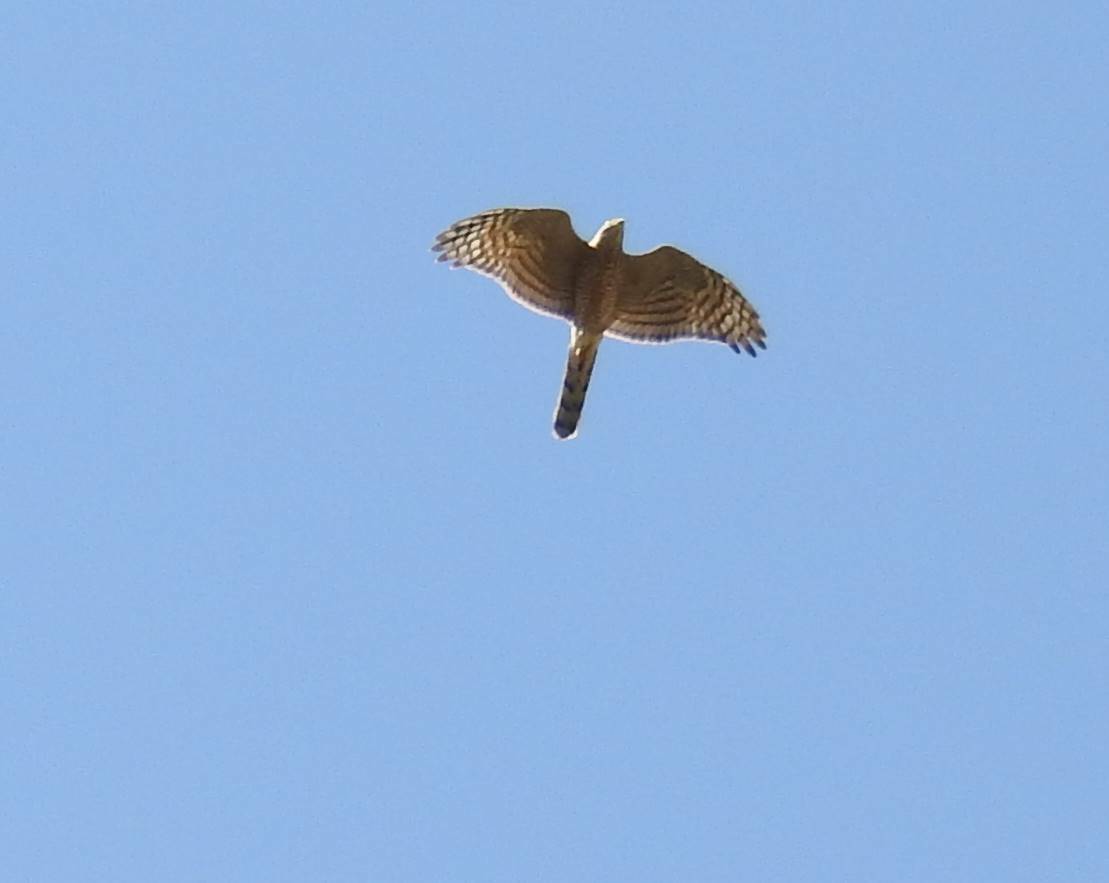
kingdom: Animalia
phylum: Chordata
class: Aves
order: Accipitriformes
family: Accipitridae
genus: Accipiter
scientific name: Accipiter nisus
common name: Eurasian sparrowhawk
